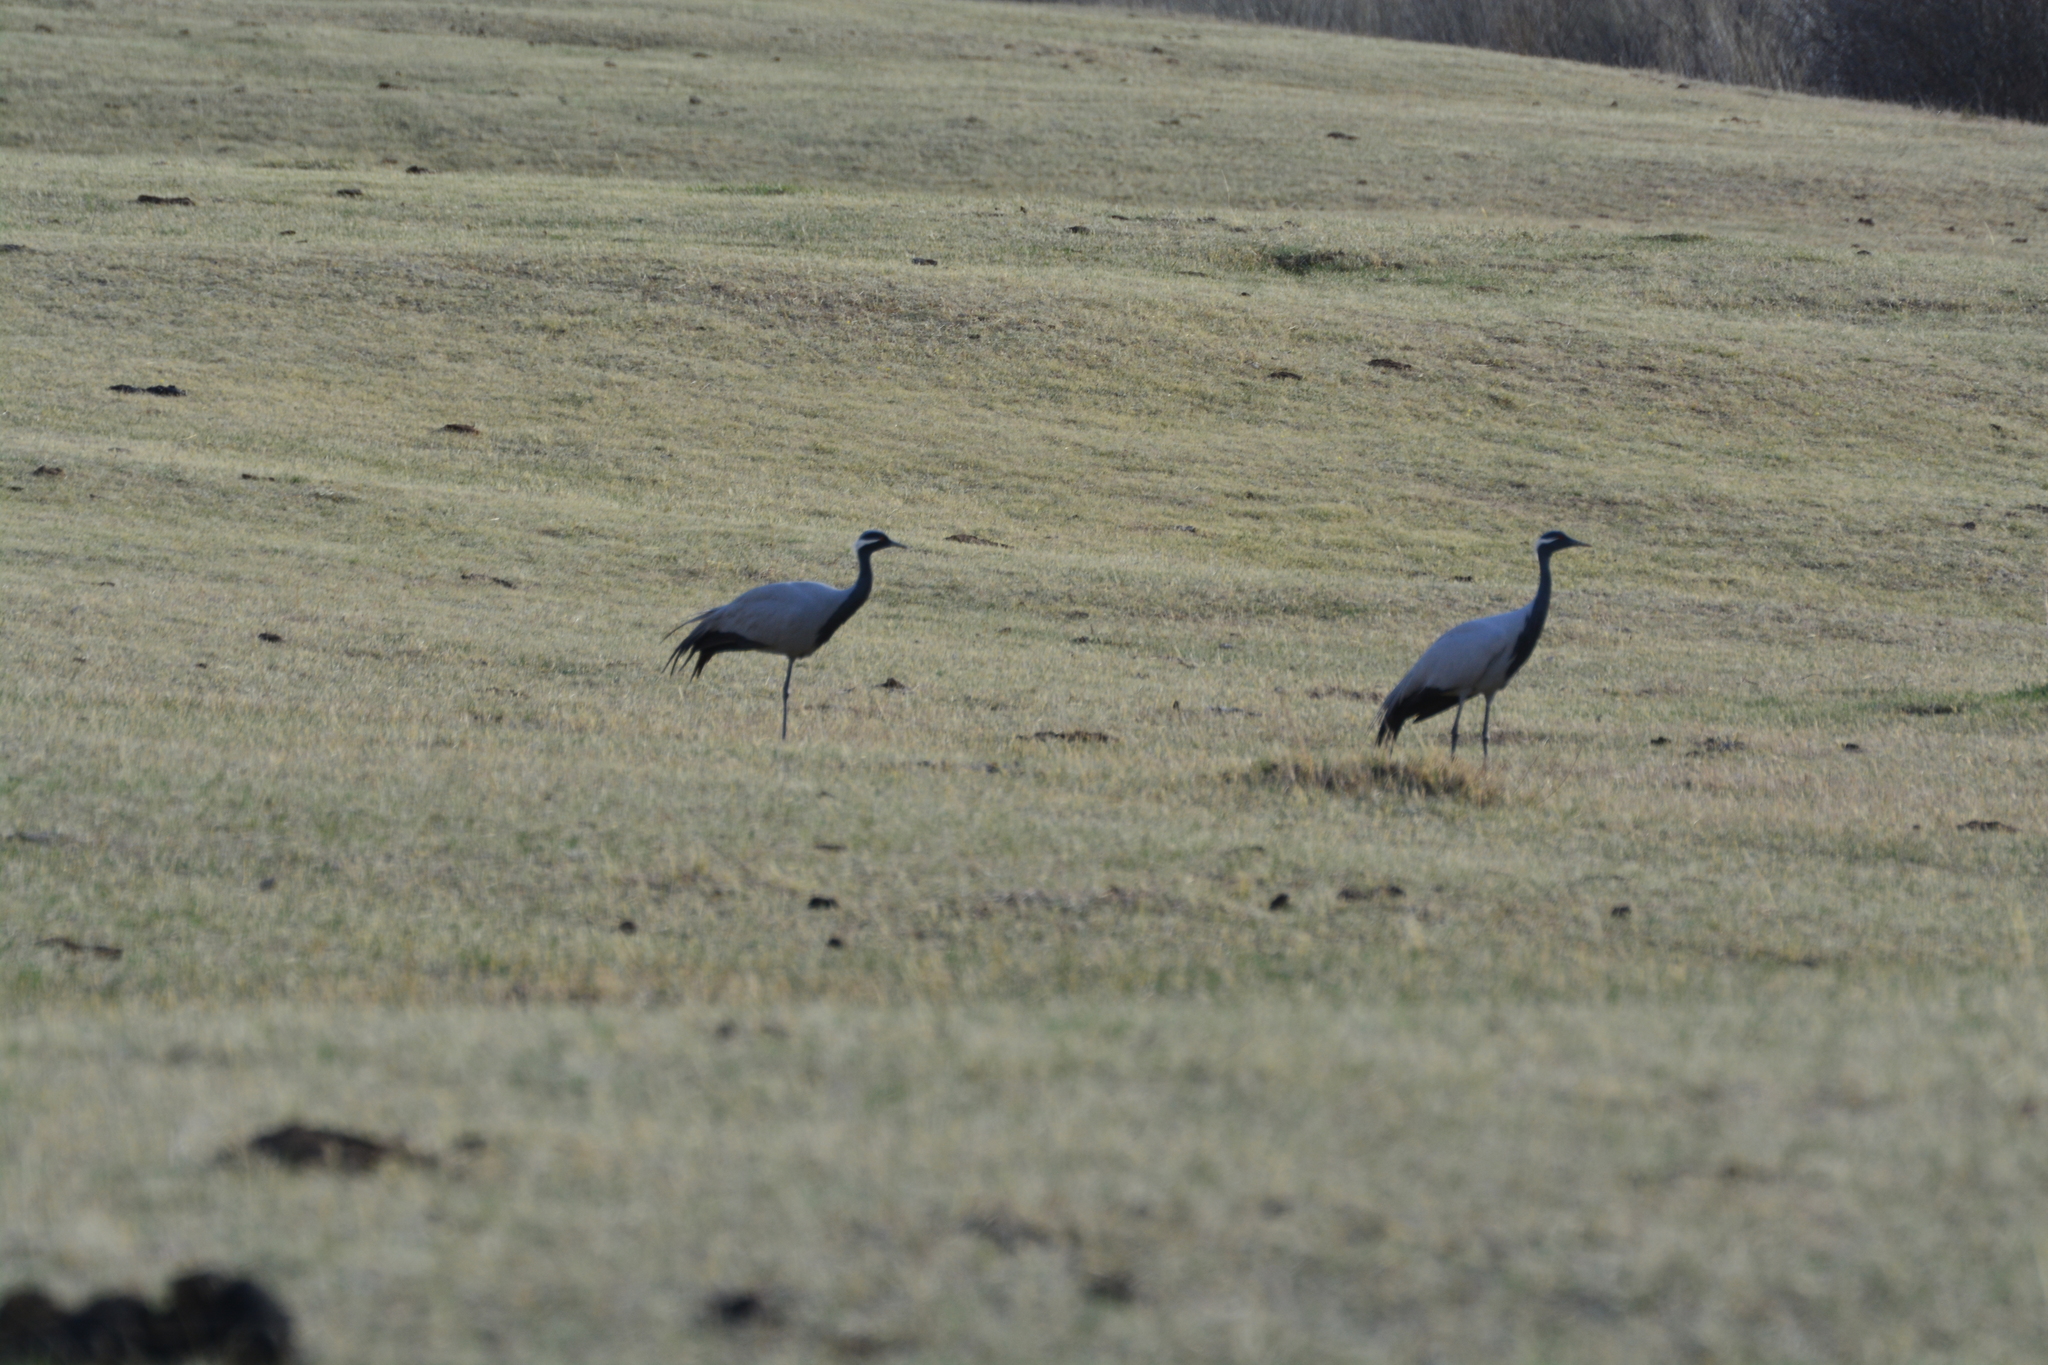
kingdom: Animalia
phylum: Chordata
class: Aves
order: Gruiformes
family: Gruidae
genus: Anthropoides
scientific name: Anthropoides virgo
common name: Demoiselle crane
